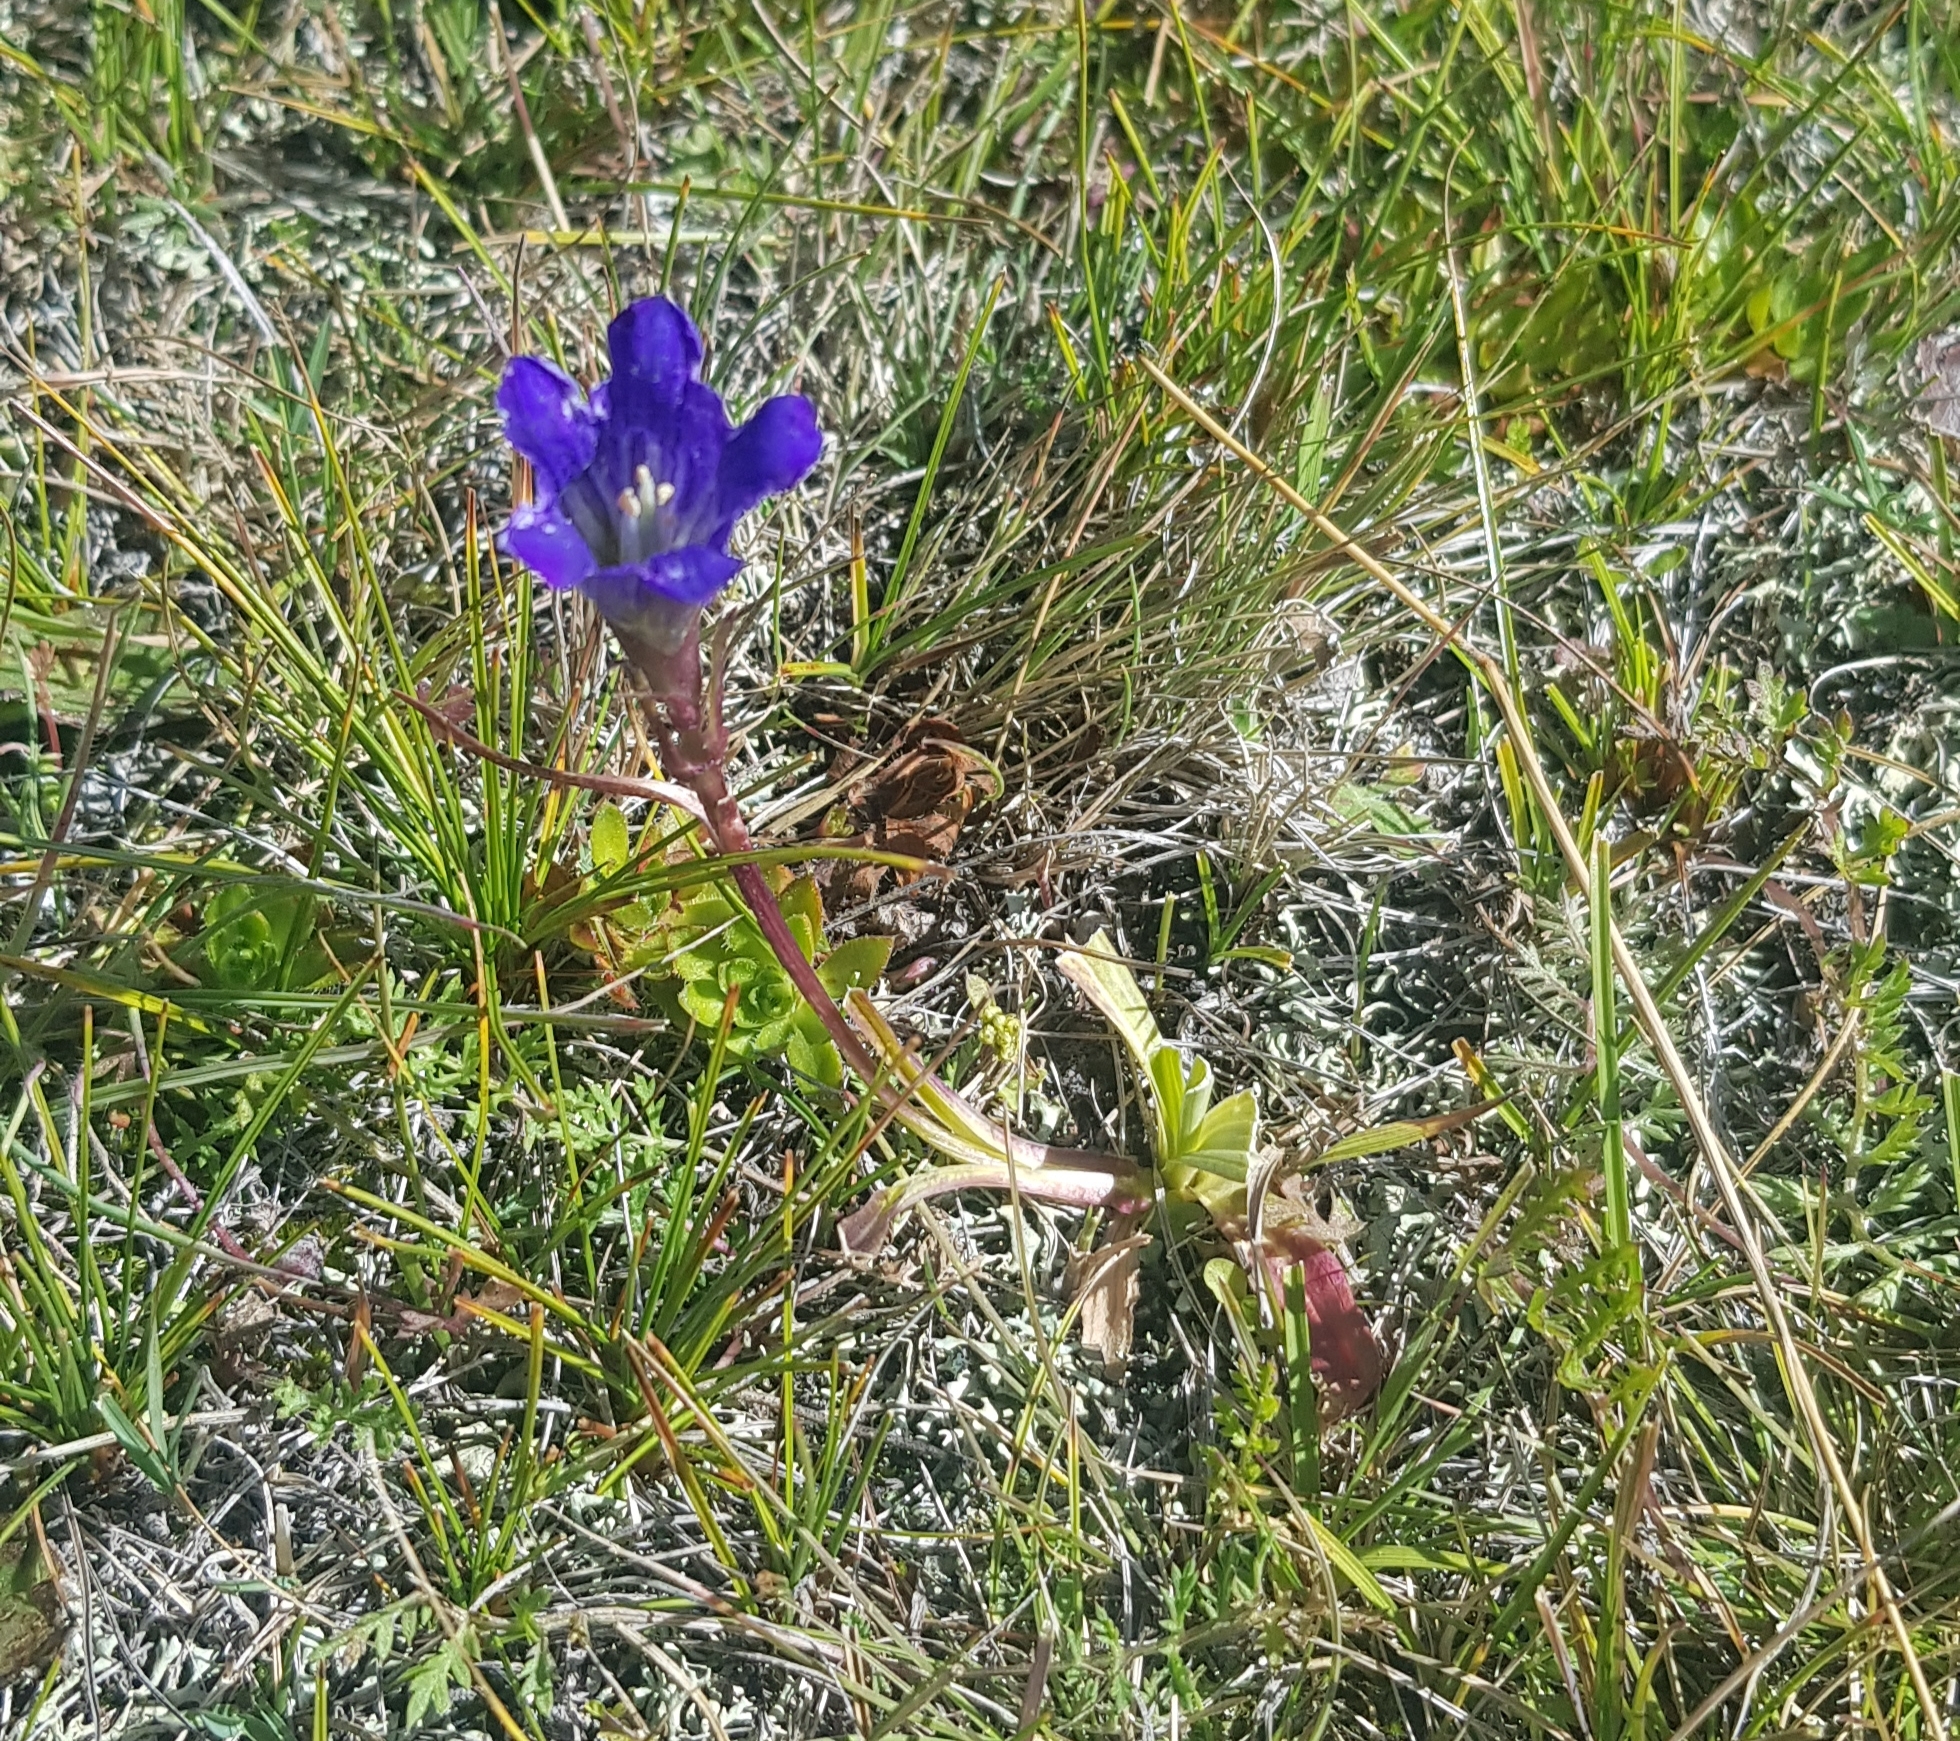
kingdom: Plantae
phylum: Tracheophyta
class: Magnoliopsida
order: Gentianales
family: Gentianaceae
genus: Gentiana
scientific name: Gentiana decumbens
